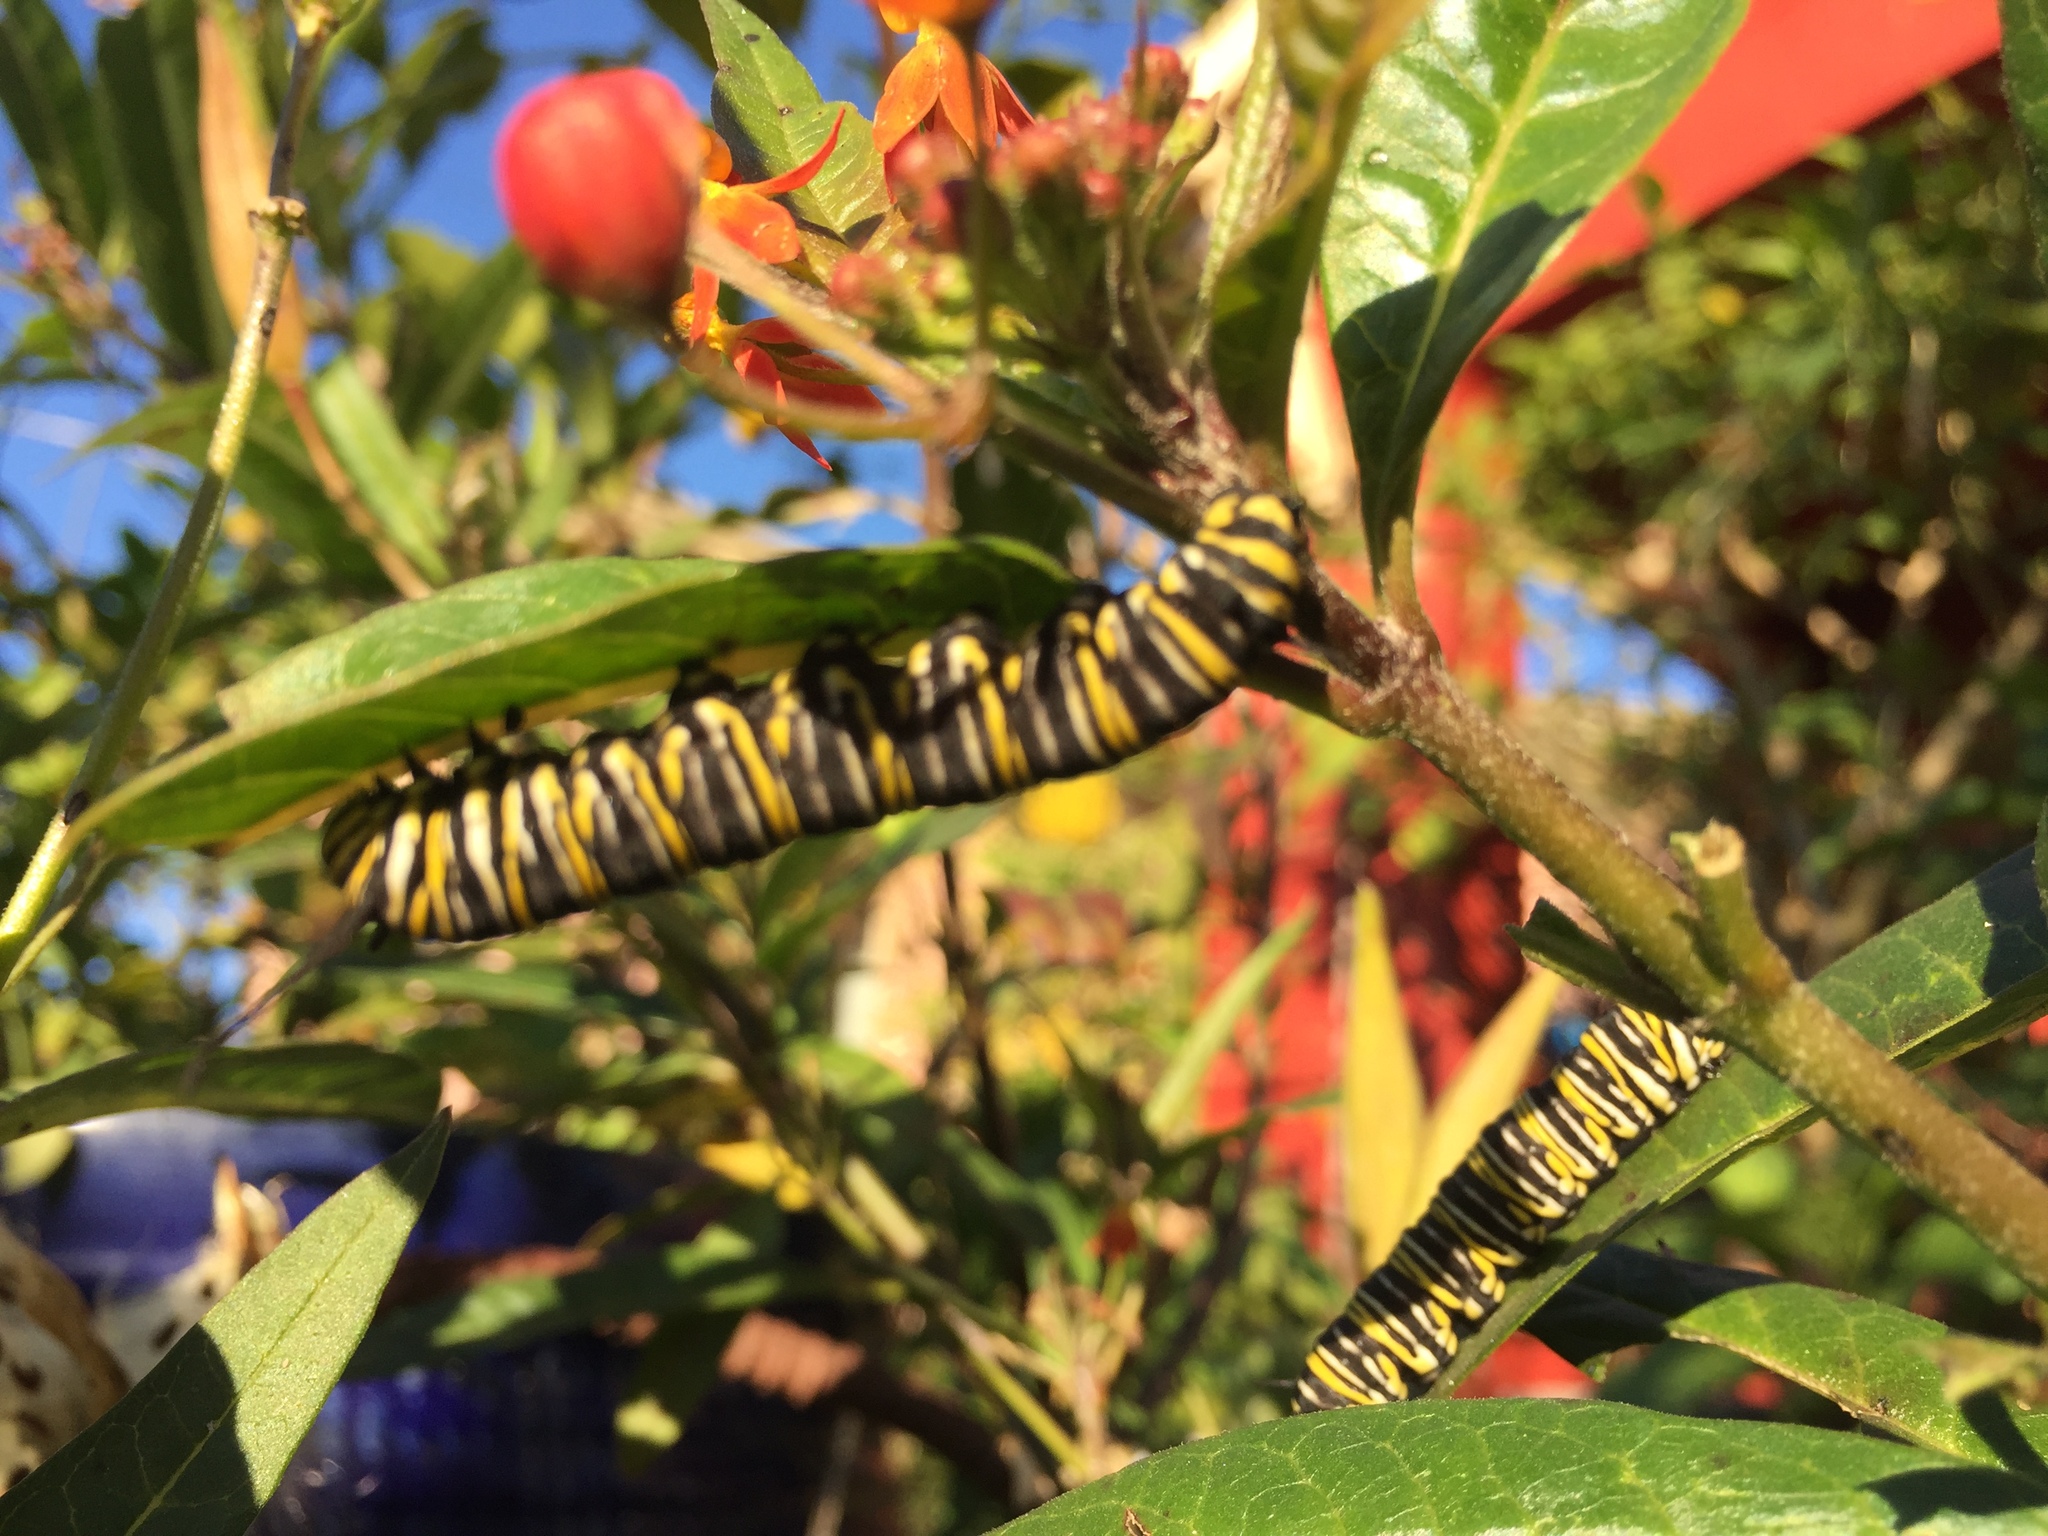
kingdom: Animalia
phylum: Arthropoda
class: Insecta
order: Lepidoptera
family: Nymphalidae
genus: Danaus
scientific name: Danaus plexippus
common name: Monarch
